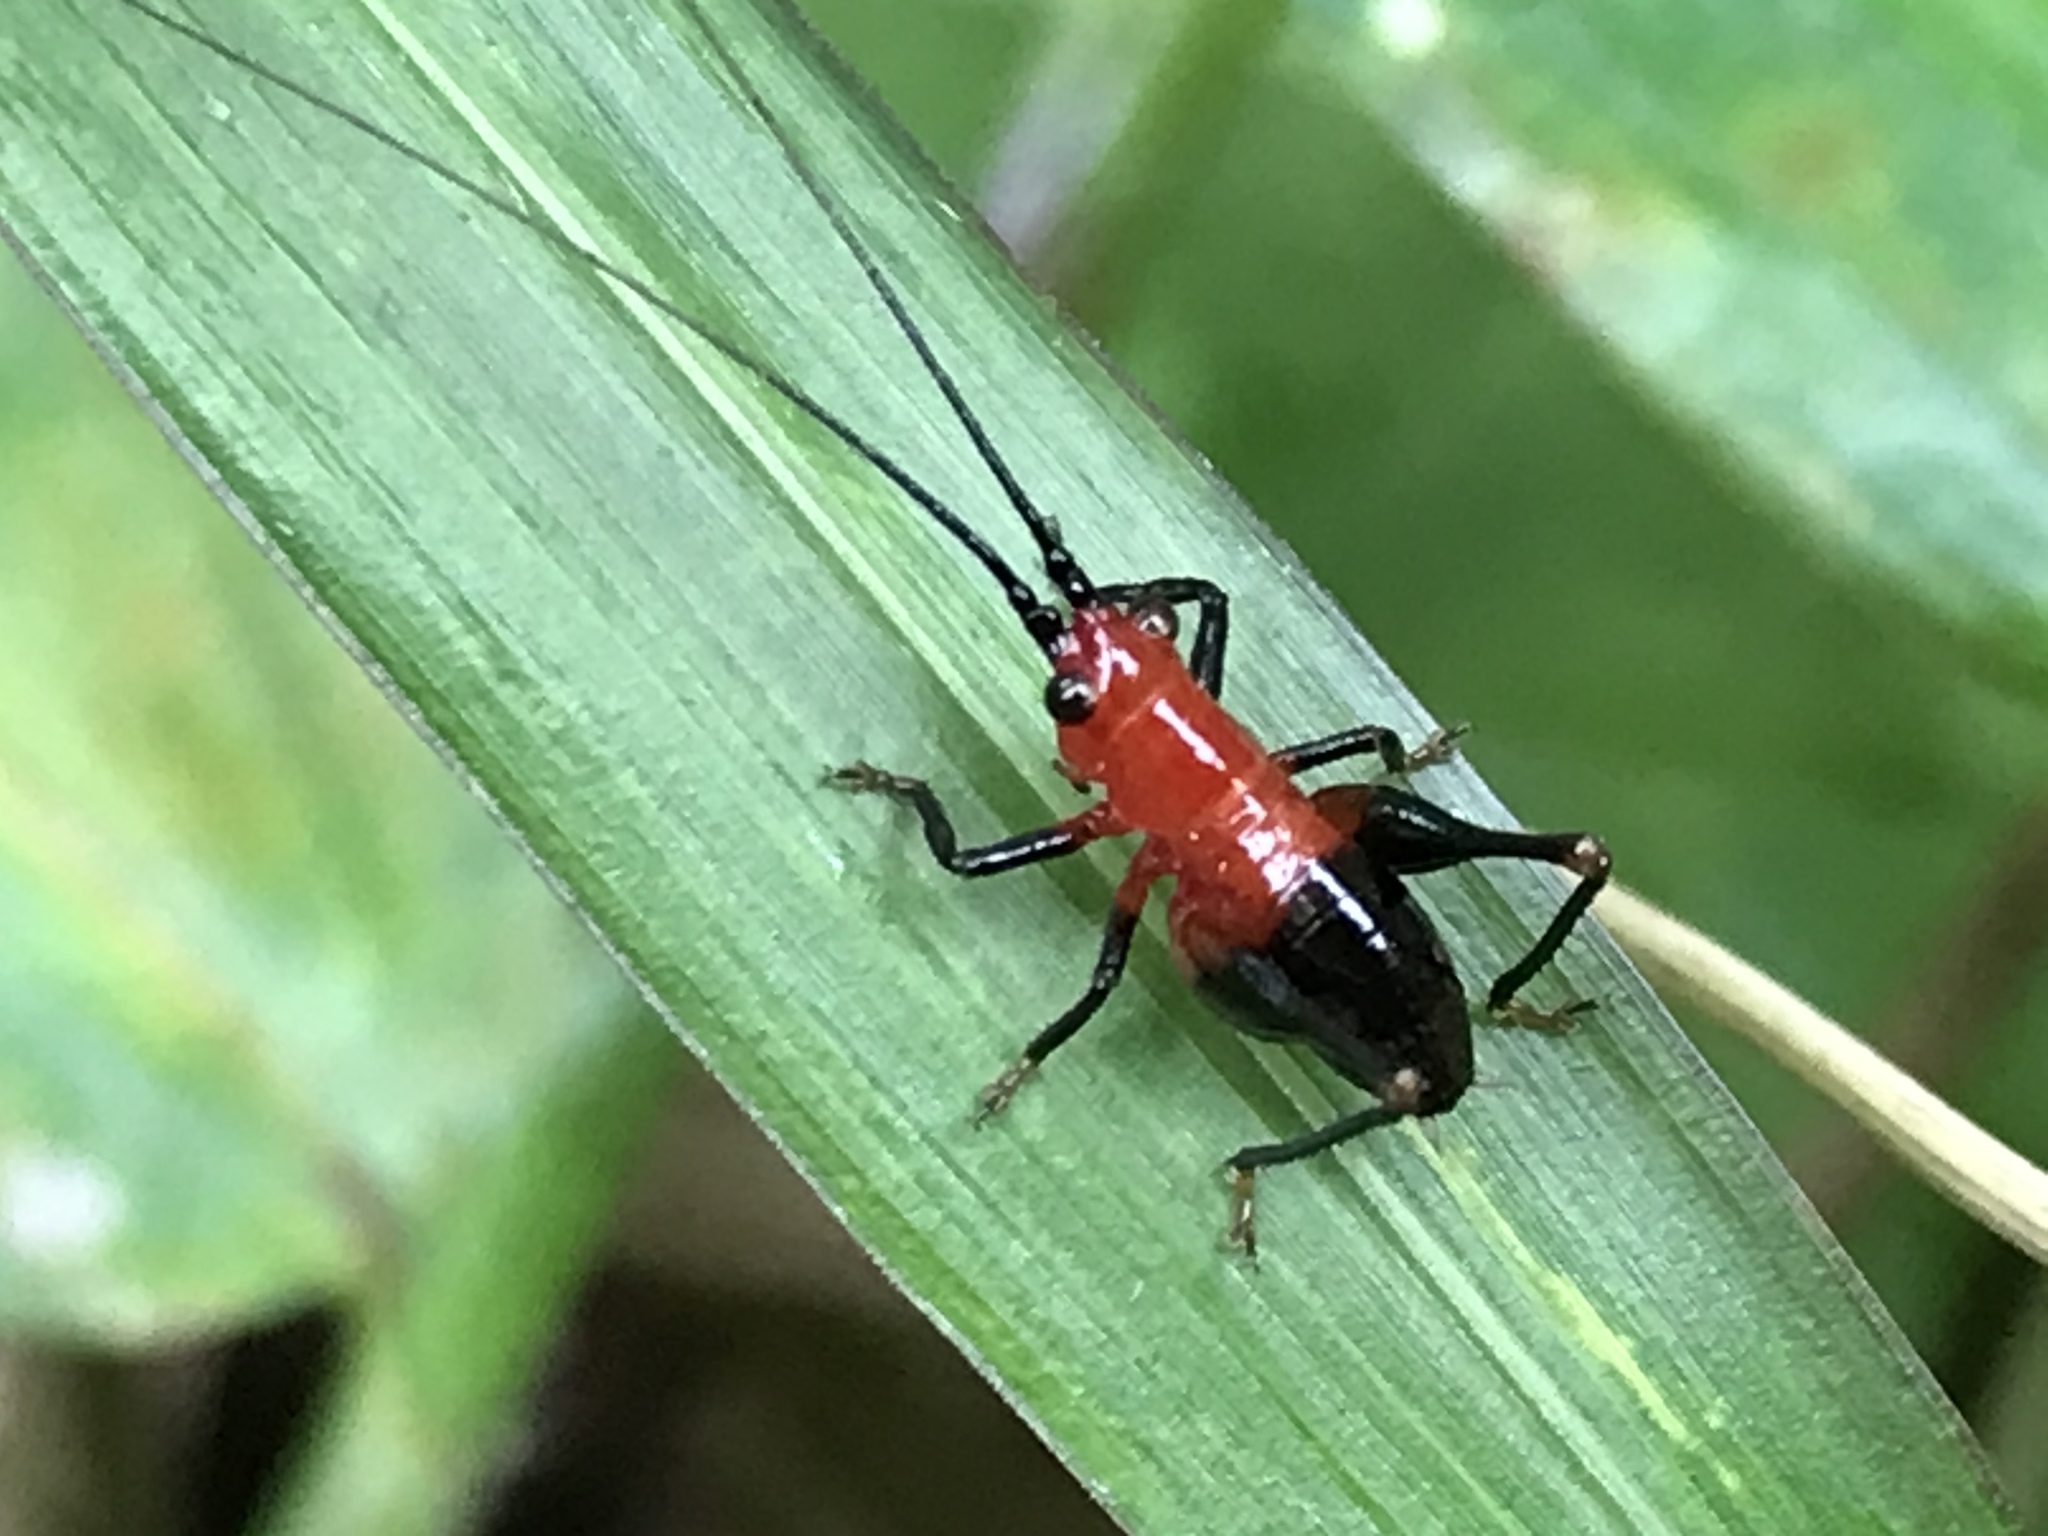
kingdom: Animalia
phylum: Arthropoda
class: Insecta
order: Orthoptera
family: Tettigoniidae
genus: Conocephalus
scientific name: Conocephalus melaenus
